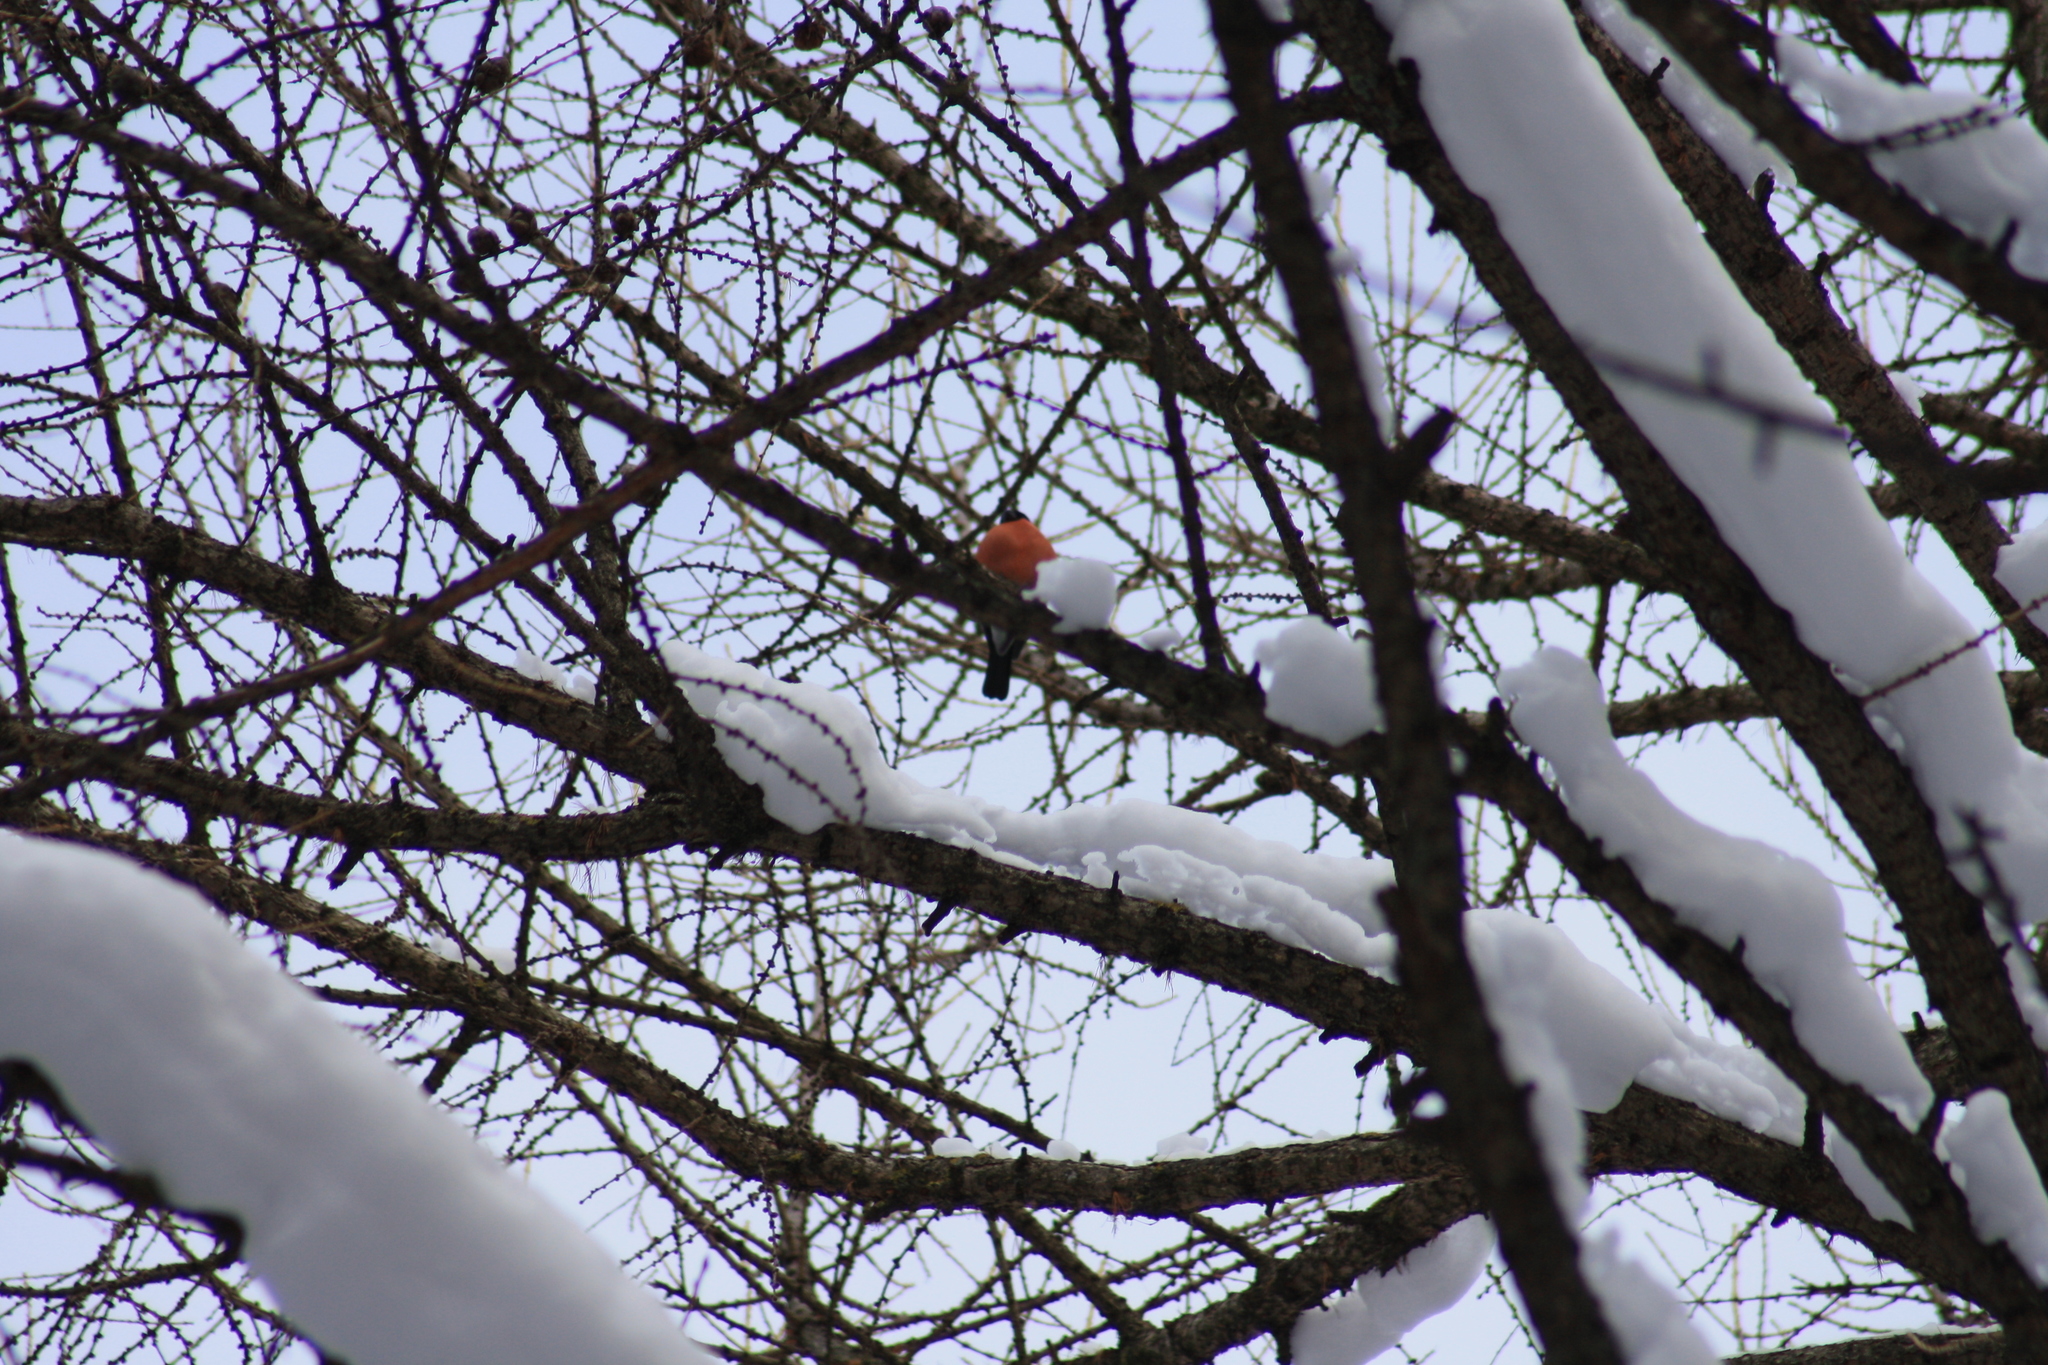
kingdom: Animalia
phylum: Chordata
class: Aves
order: Passeriformes
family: Fringillidae
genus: Pyrrhula
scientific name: Pyrrhula pyrrhula
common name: Eurasian bullfinch
